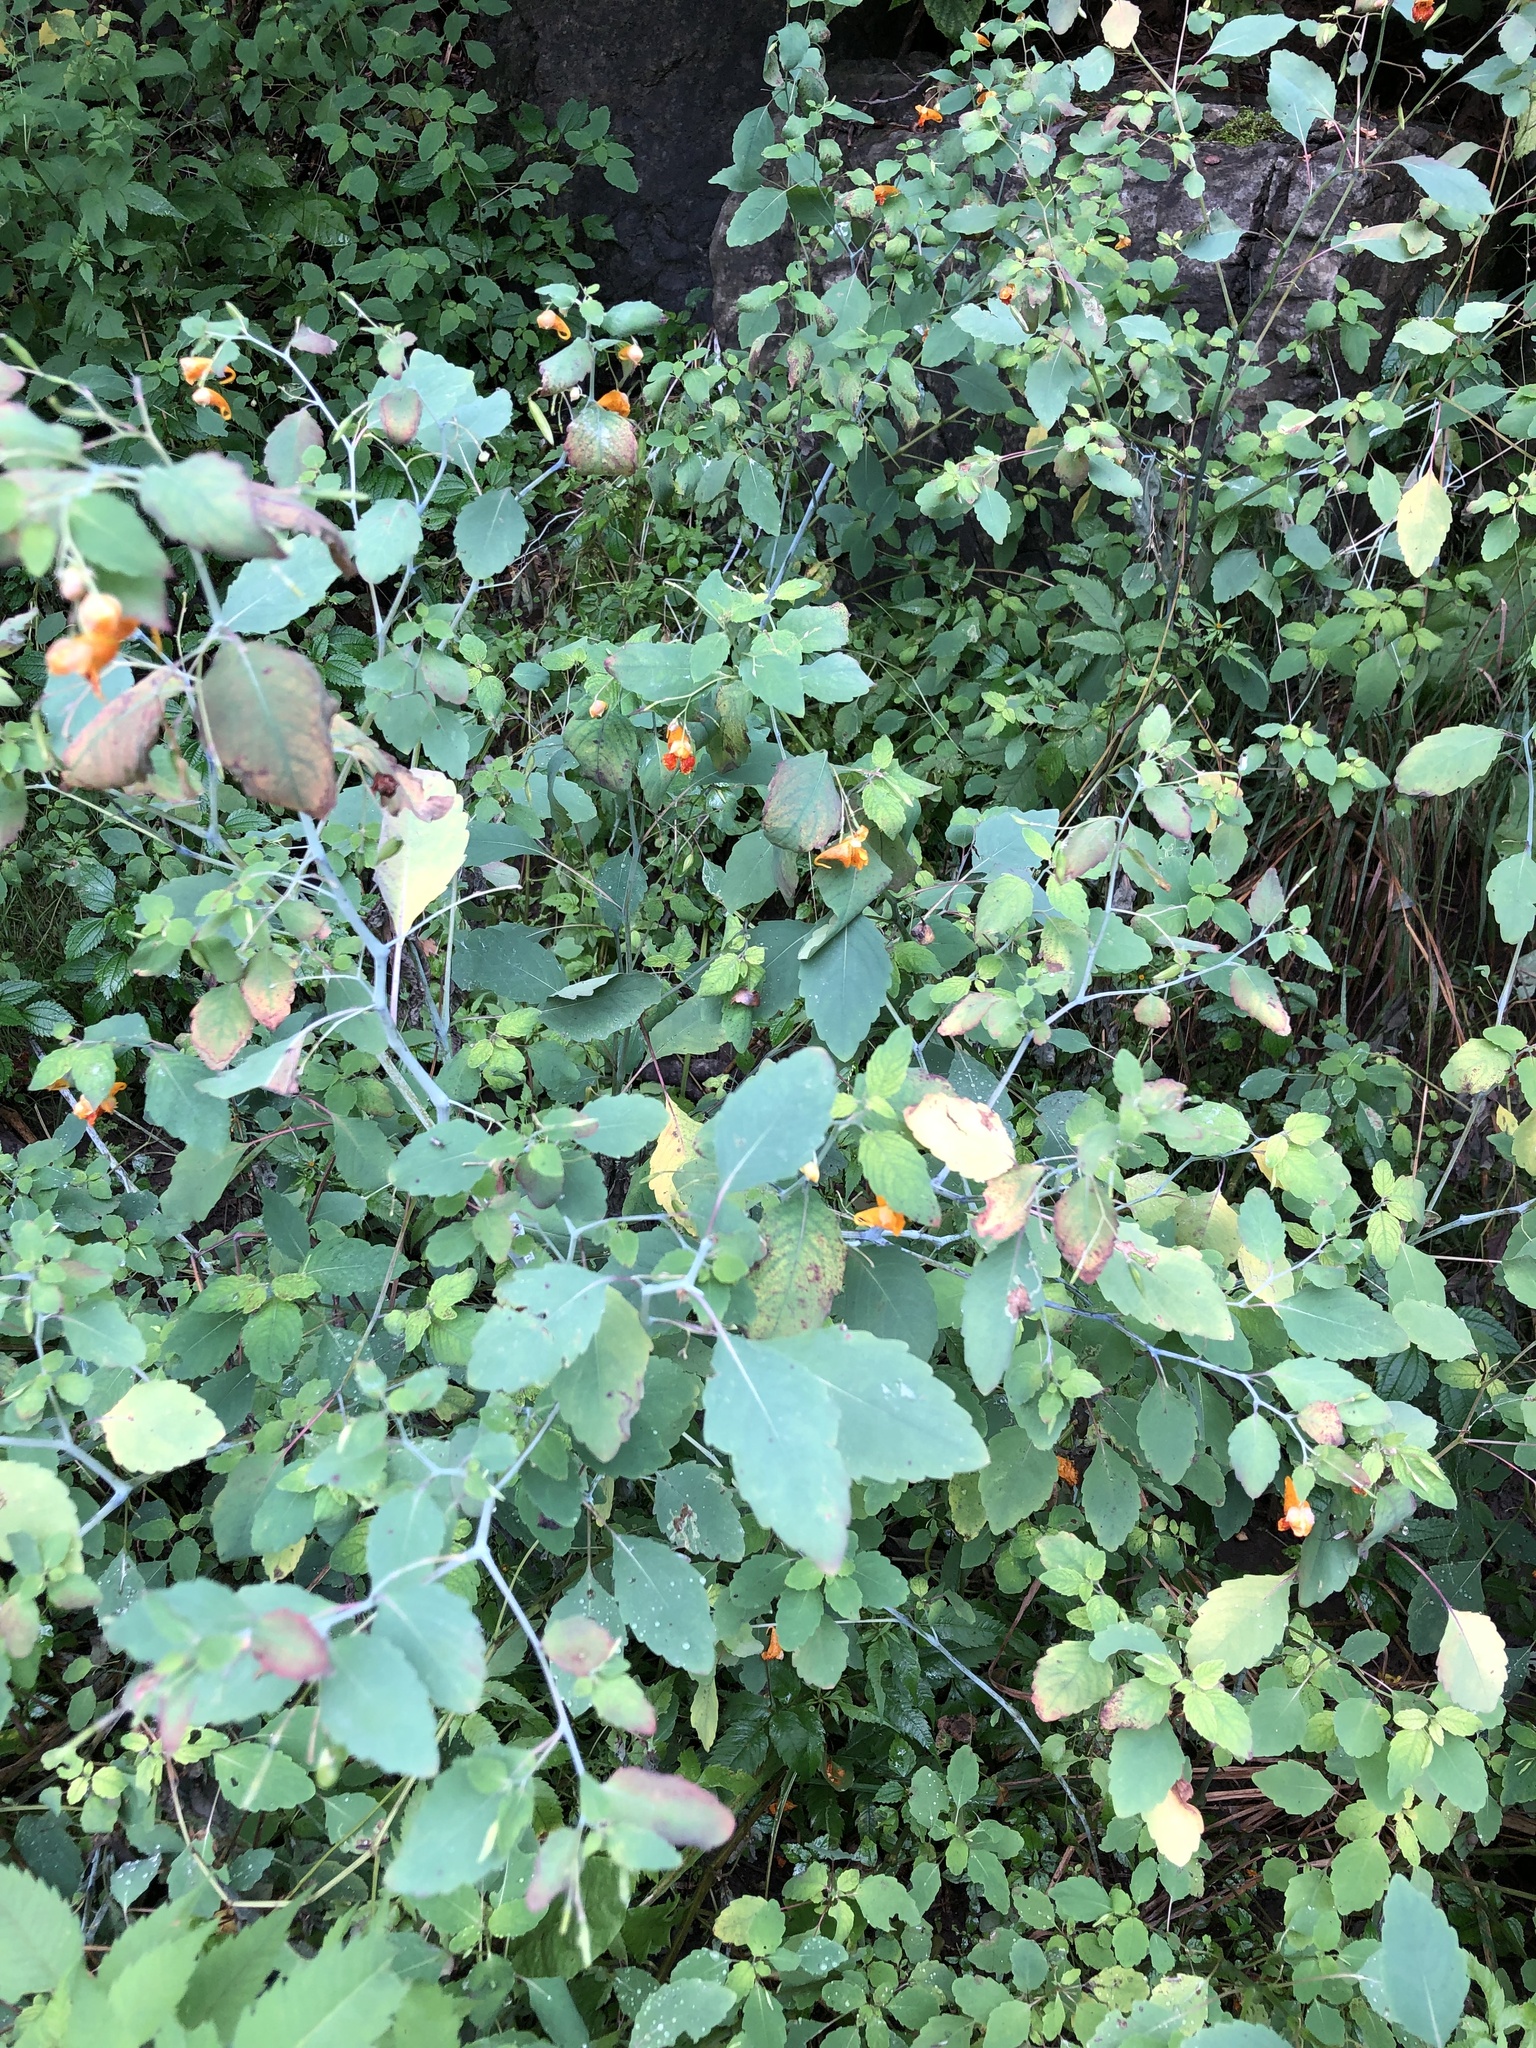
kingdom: Plantae
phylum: Tracheophyta
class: Magnoliopsida
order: Ericales
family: Balsaminaceae
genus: Impatiens
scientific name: Impatiens capensis
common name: Orange balsam
